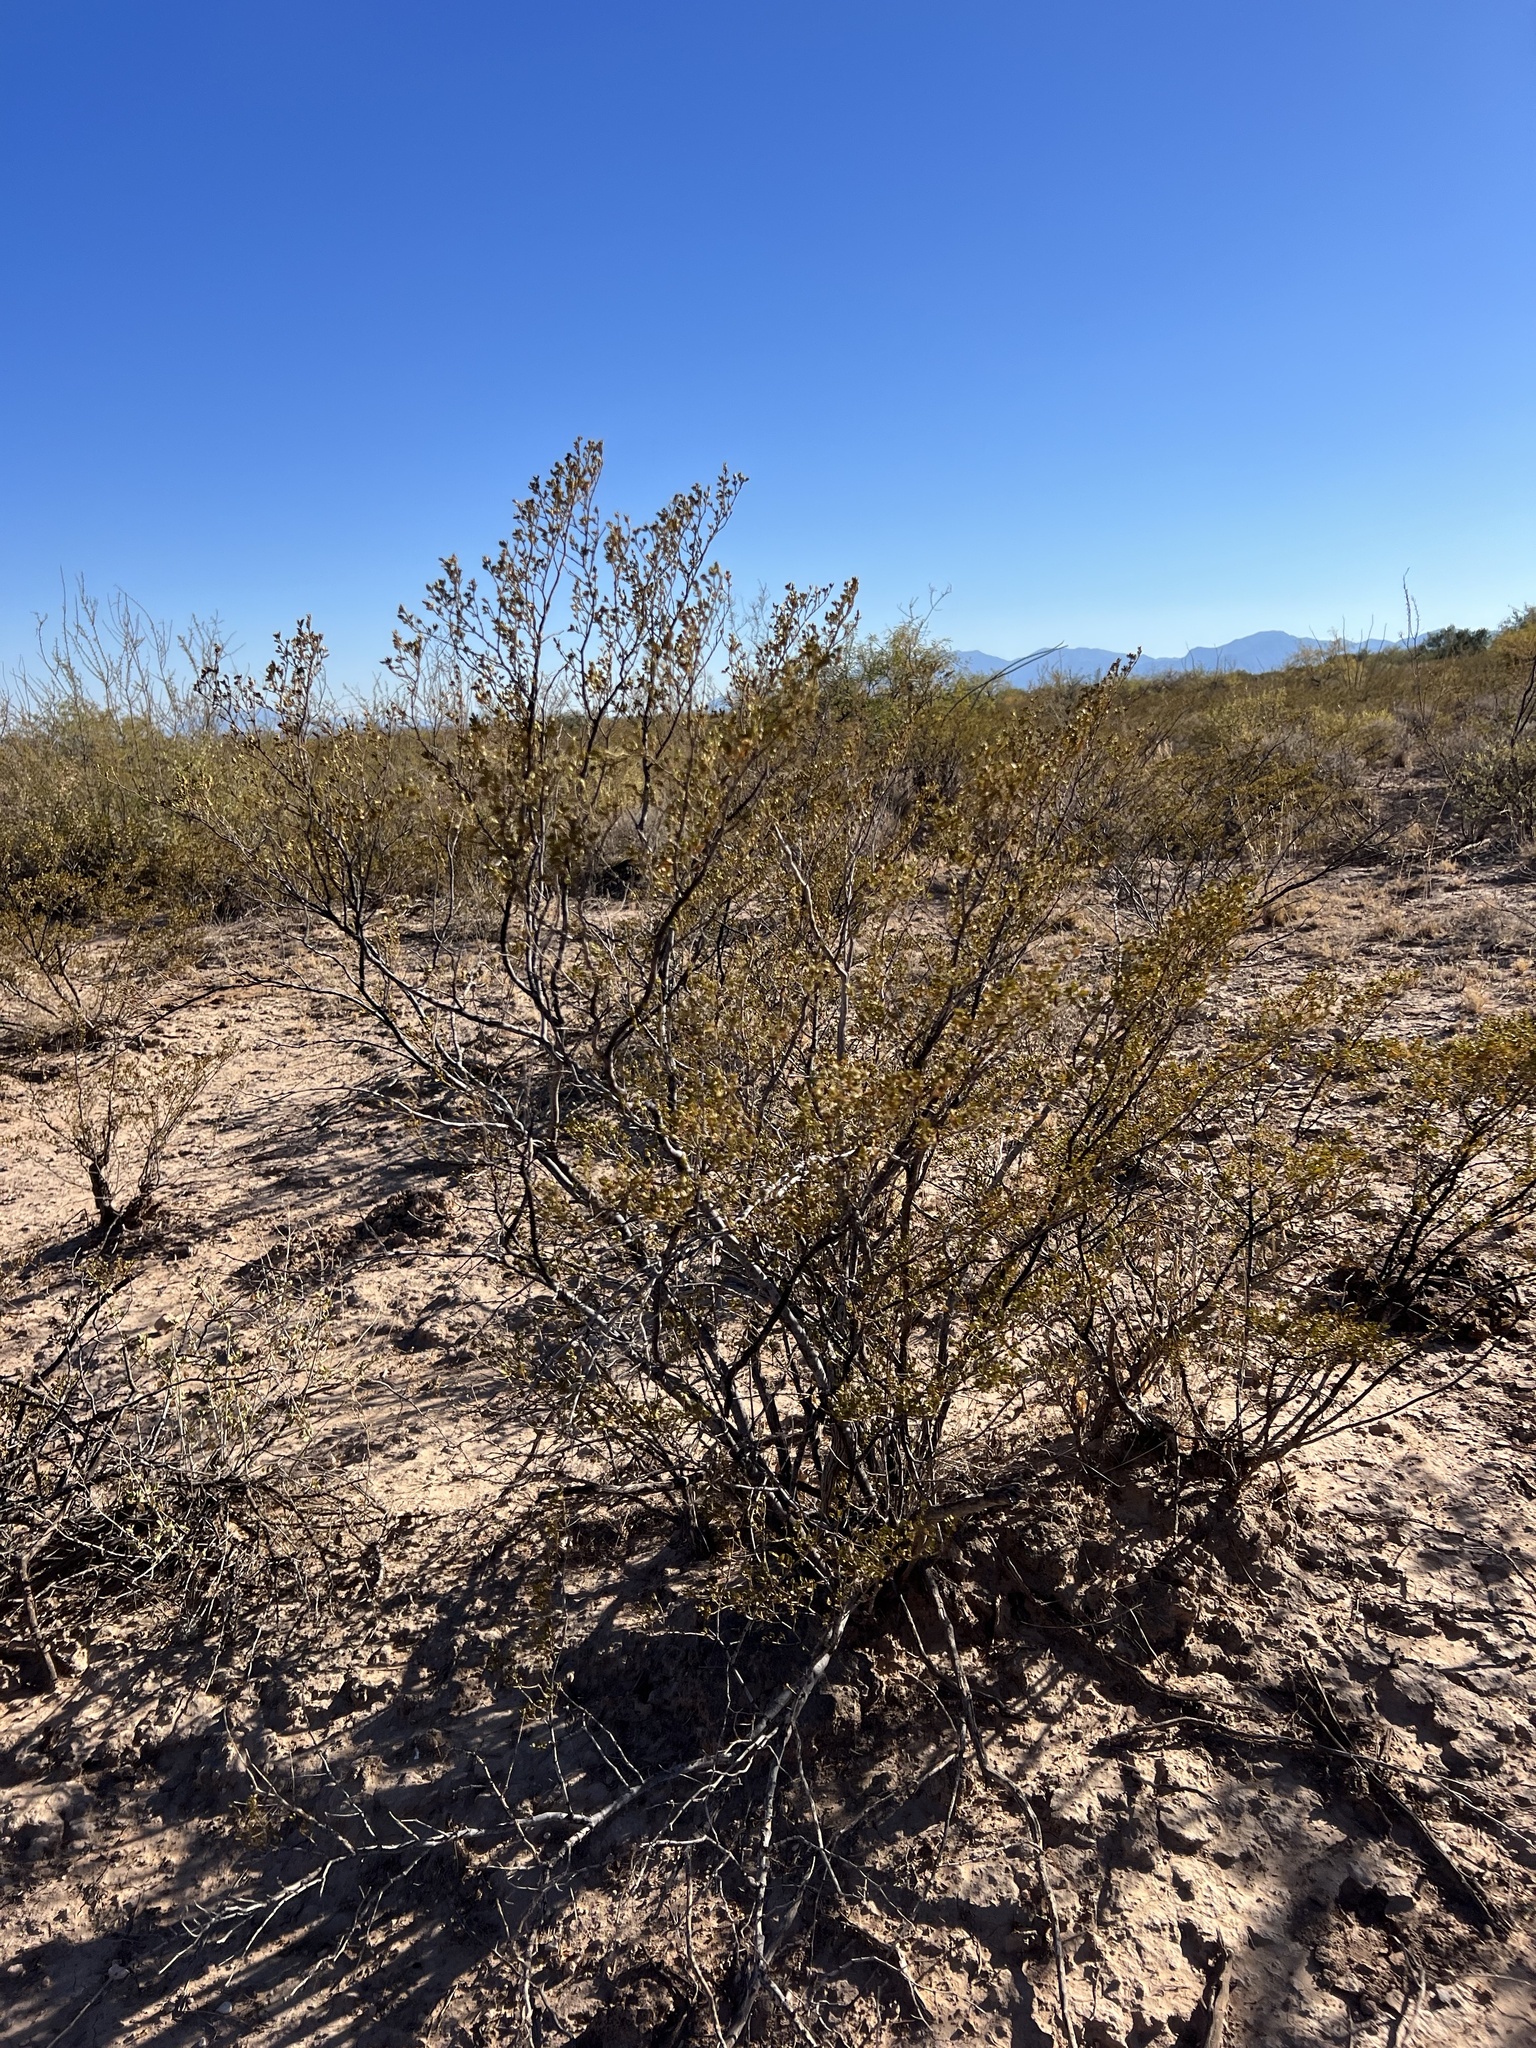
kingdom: Plantae
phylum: Tracheophyta
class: Magnoliopsida
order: Zygophyllales
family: Zygophyllaceae
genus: Larrea
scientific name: Larrea tridentata
